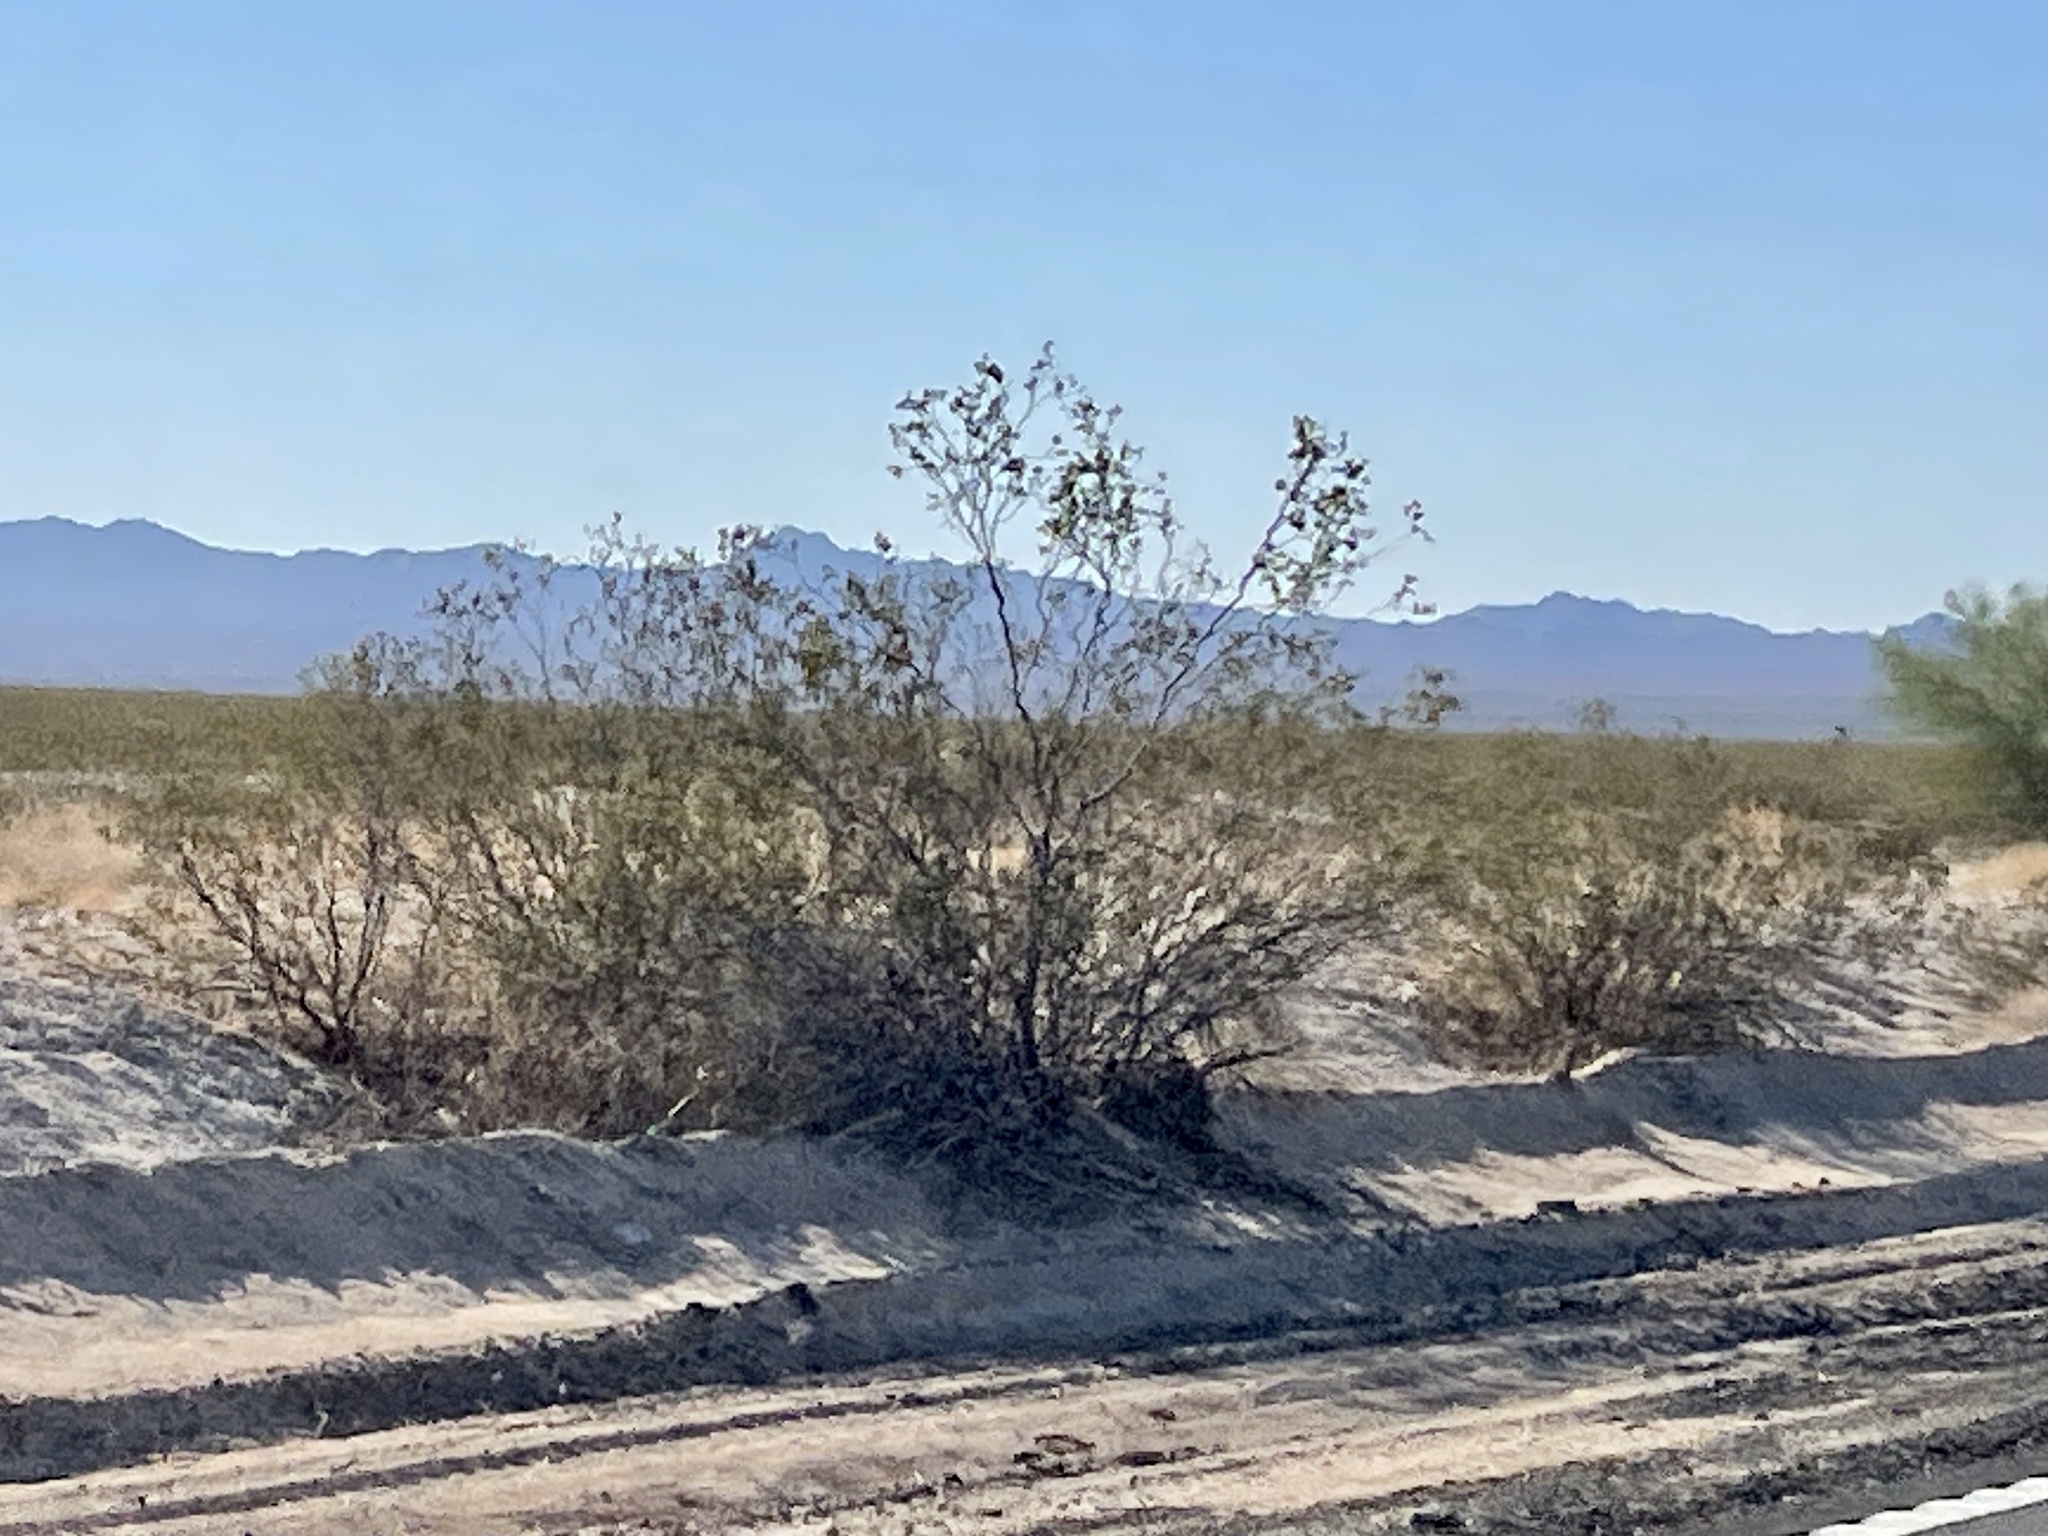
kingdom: Plantae
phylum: Tracheophyta
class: Magnoliopsida
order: Zygophyllales
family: Zygophyllaceae
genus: Larrea
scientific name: Larrea tridentata
